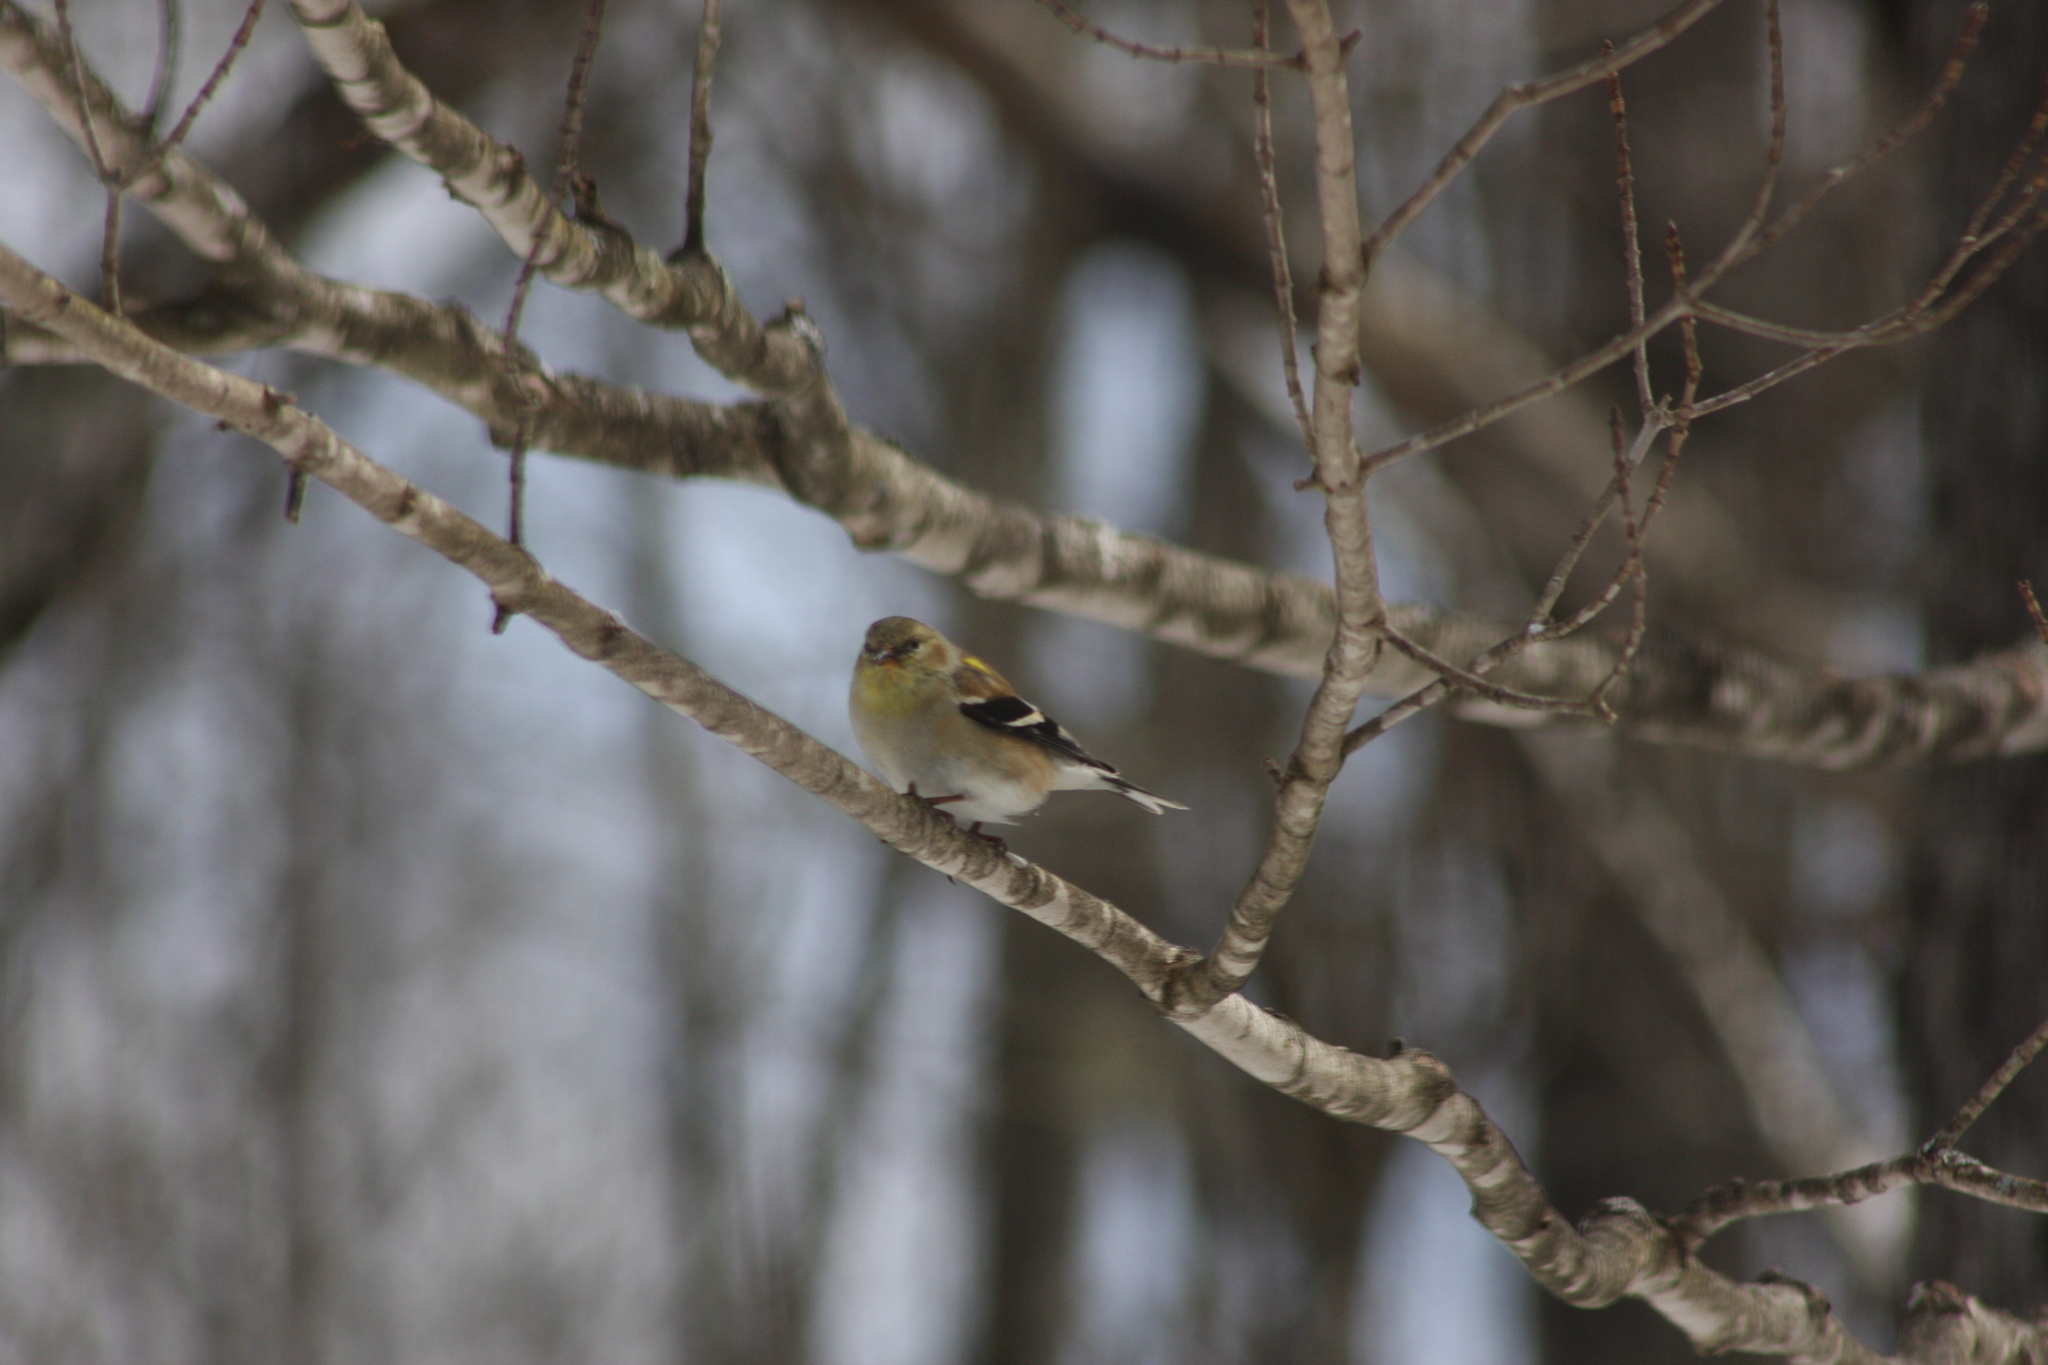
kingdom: Animalia
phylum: Chordata
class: Aves
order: Passeriformes
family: Fringillidae
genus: Spinus
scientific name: Spinus tristis
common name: American goldfinch
